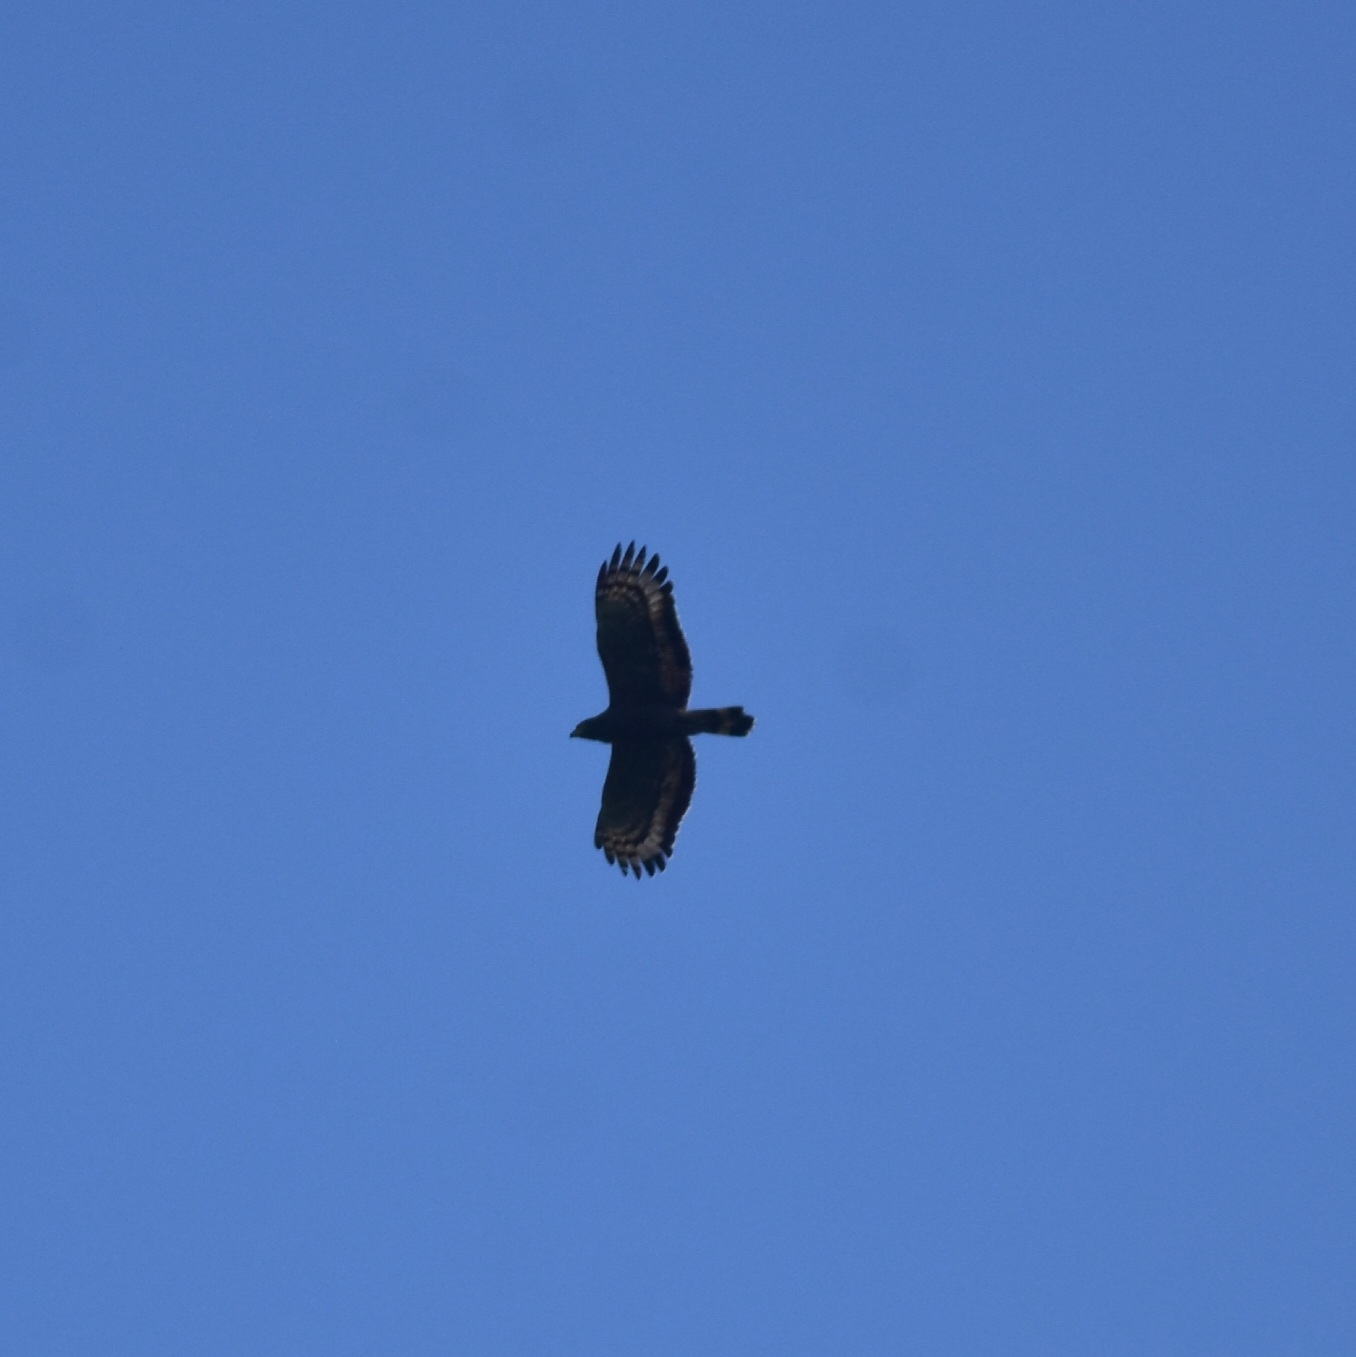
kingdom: Animalia
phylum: Chordata
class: Aves
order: Accipitriformes
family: Accipitridae
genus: Spilornis
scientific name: Spilornis cheela
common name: Crested serpent eagle
